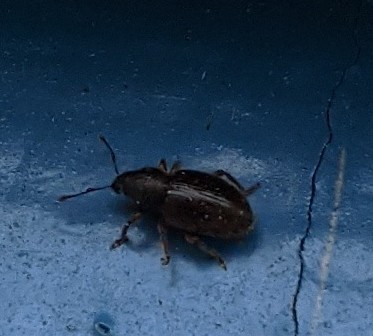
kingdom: Animalia
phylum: Arthropoda
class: Insecta
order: Coleoptera
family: Curculionidae
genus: Exomias
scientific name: Exomias pellucidus
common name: Hairy spider weevil
